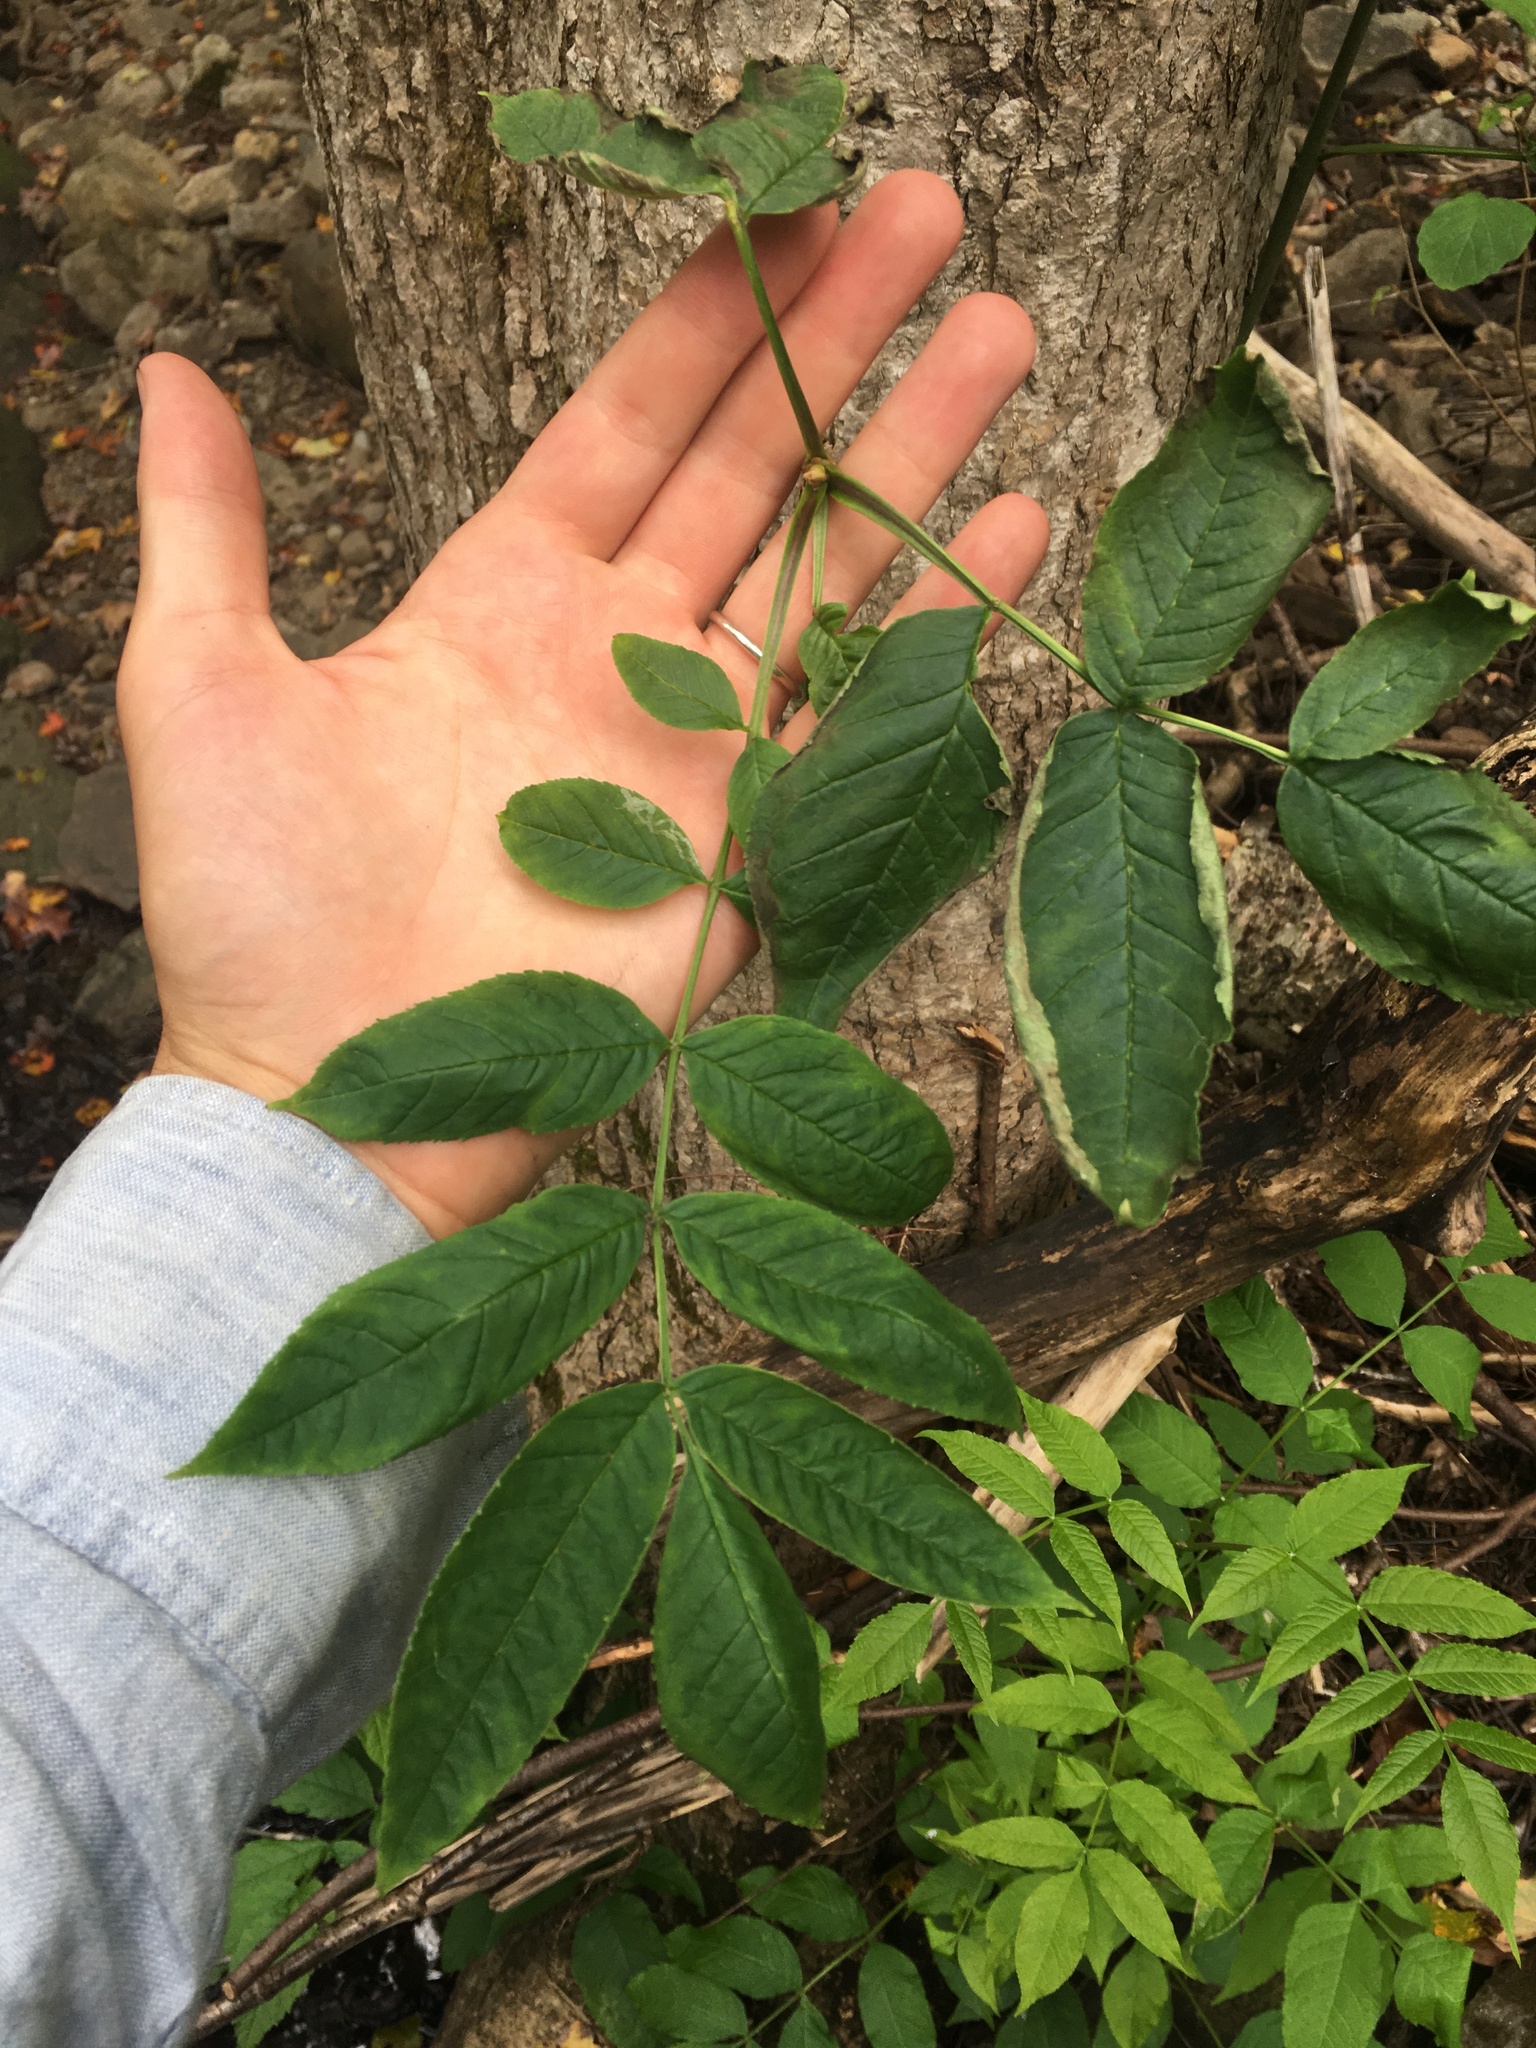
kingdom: Plantae
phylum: Tracheophyta
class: Magnoliopsida
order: Lamiales
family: Oleaceae
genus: Fraxinus
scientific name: Fraxinus nigra
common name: Black ash
